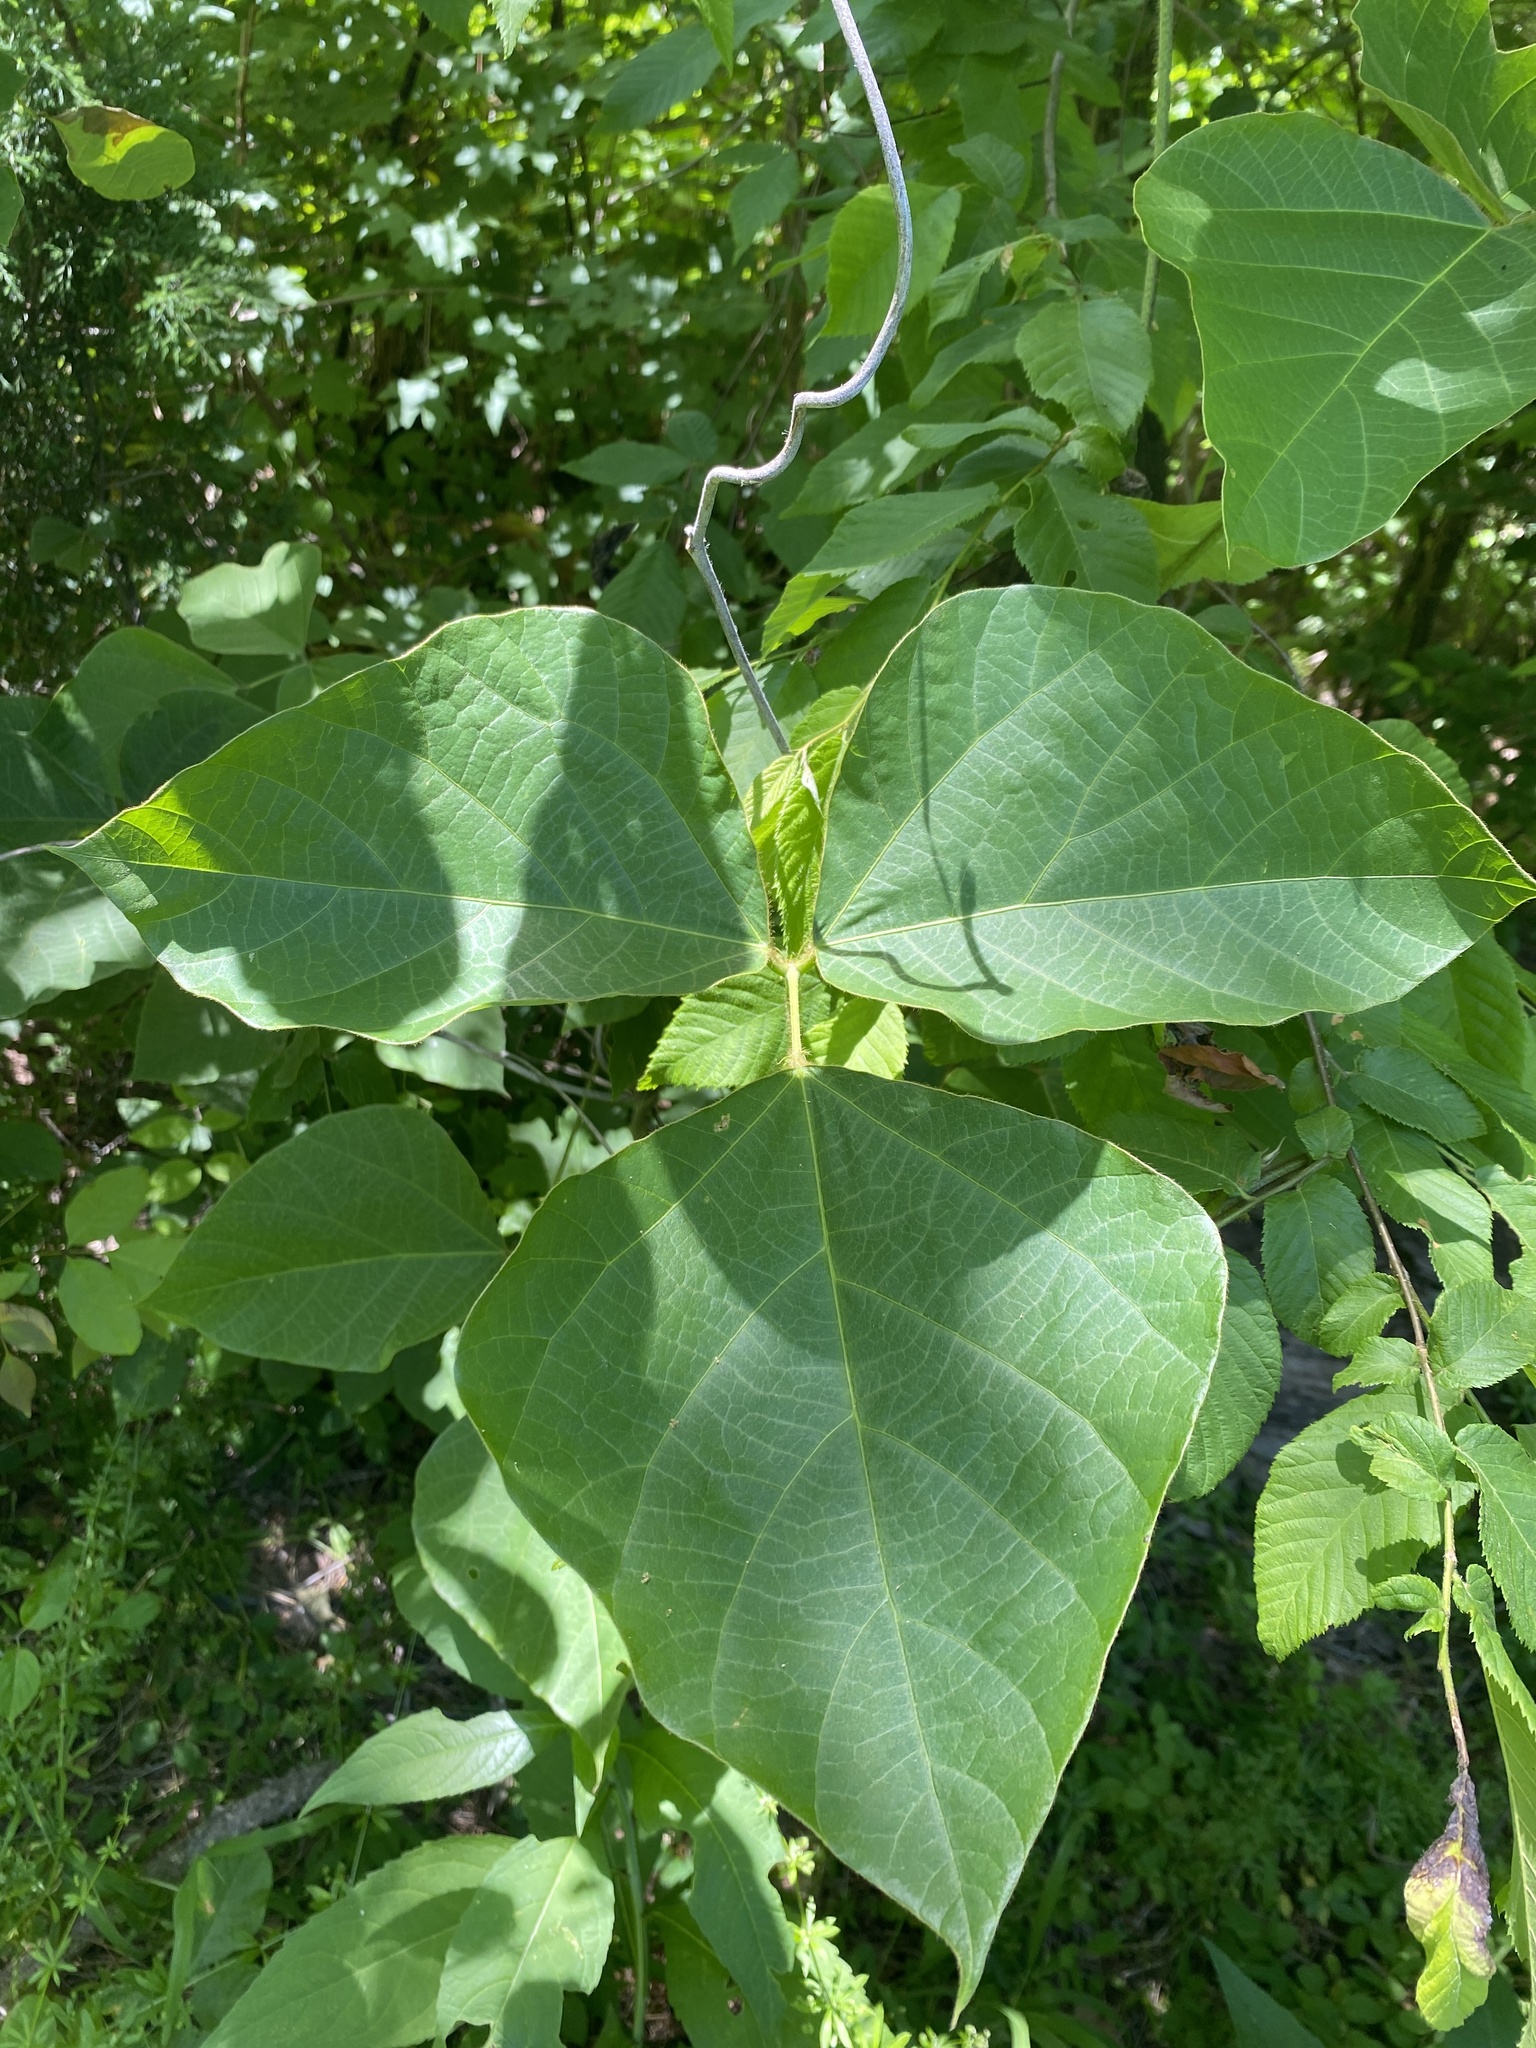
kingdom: Plantae
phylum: Tracheophyta
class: Magnoliopsida
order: Fabales
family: Fabaceae
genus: Pueraria
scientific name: Pueraria montana
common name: Kudzu
